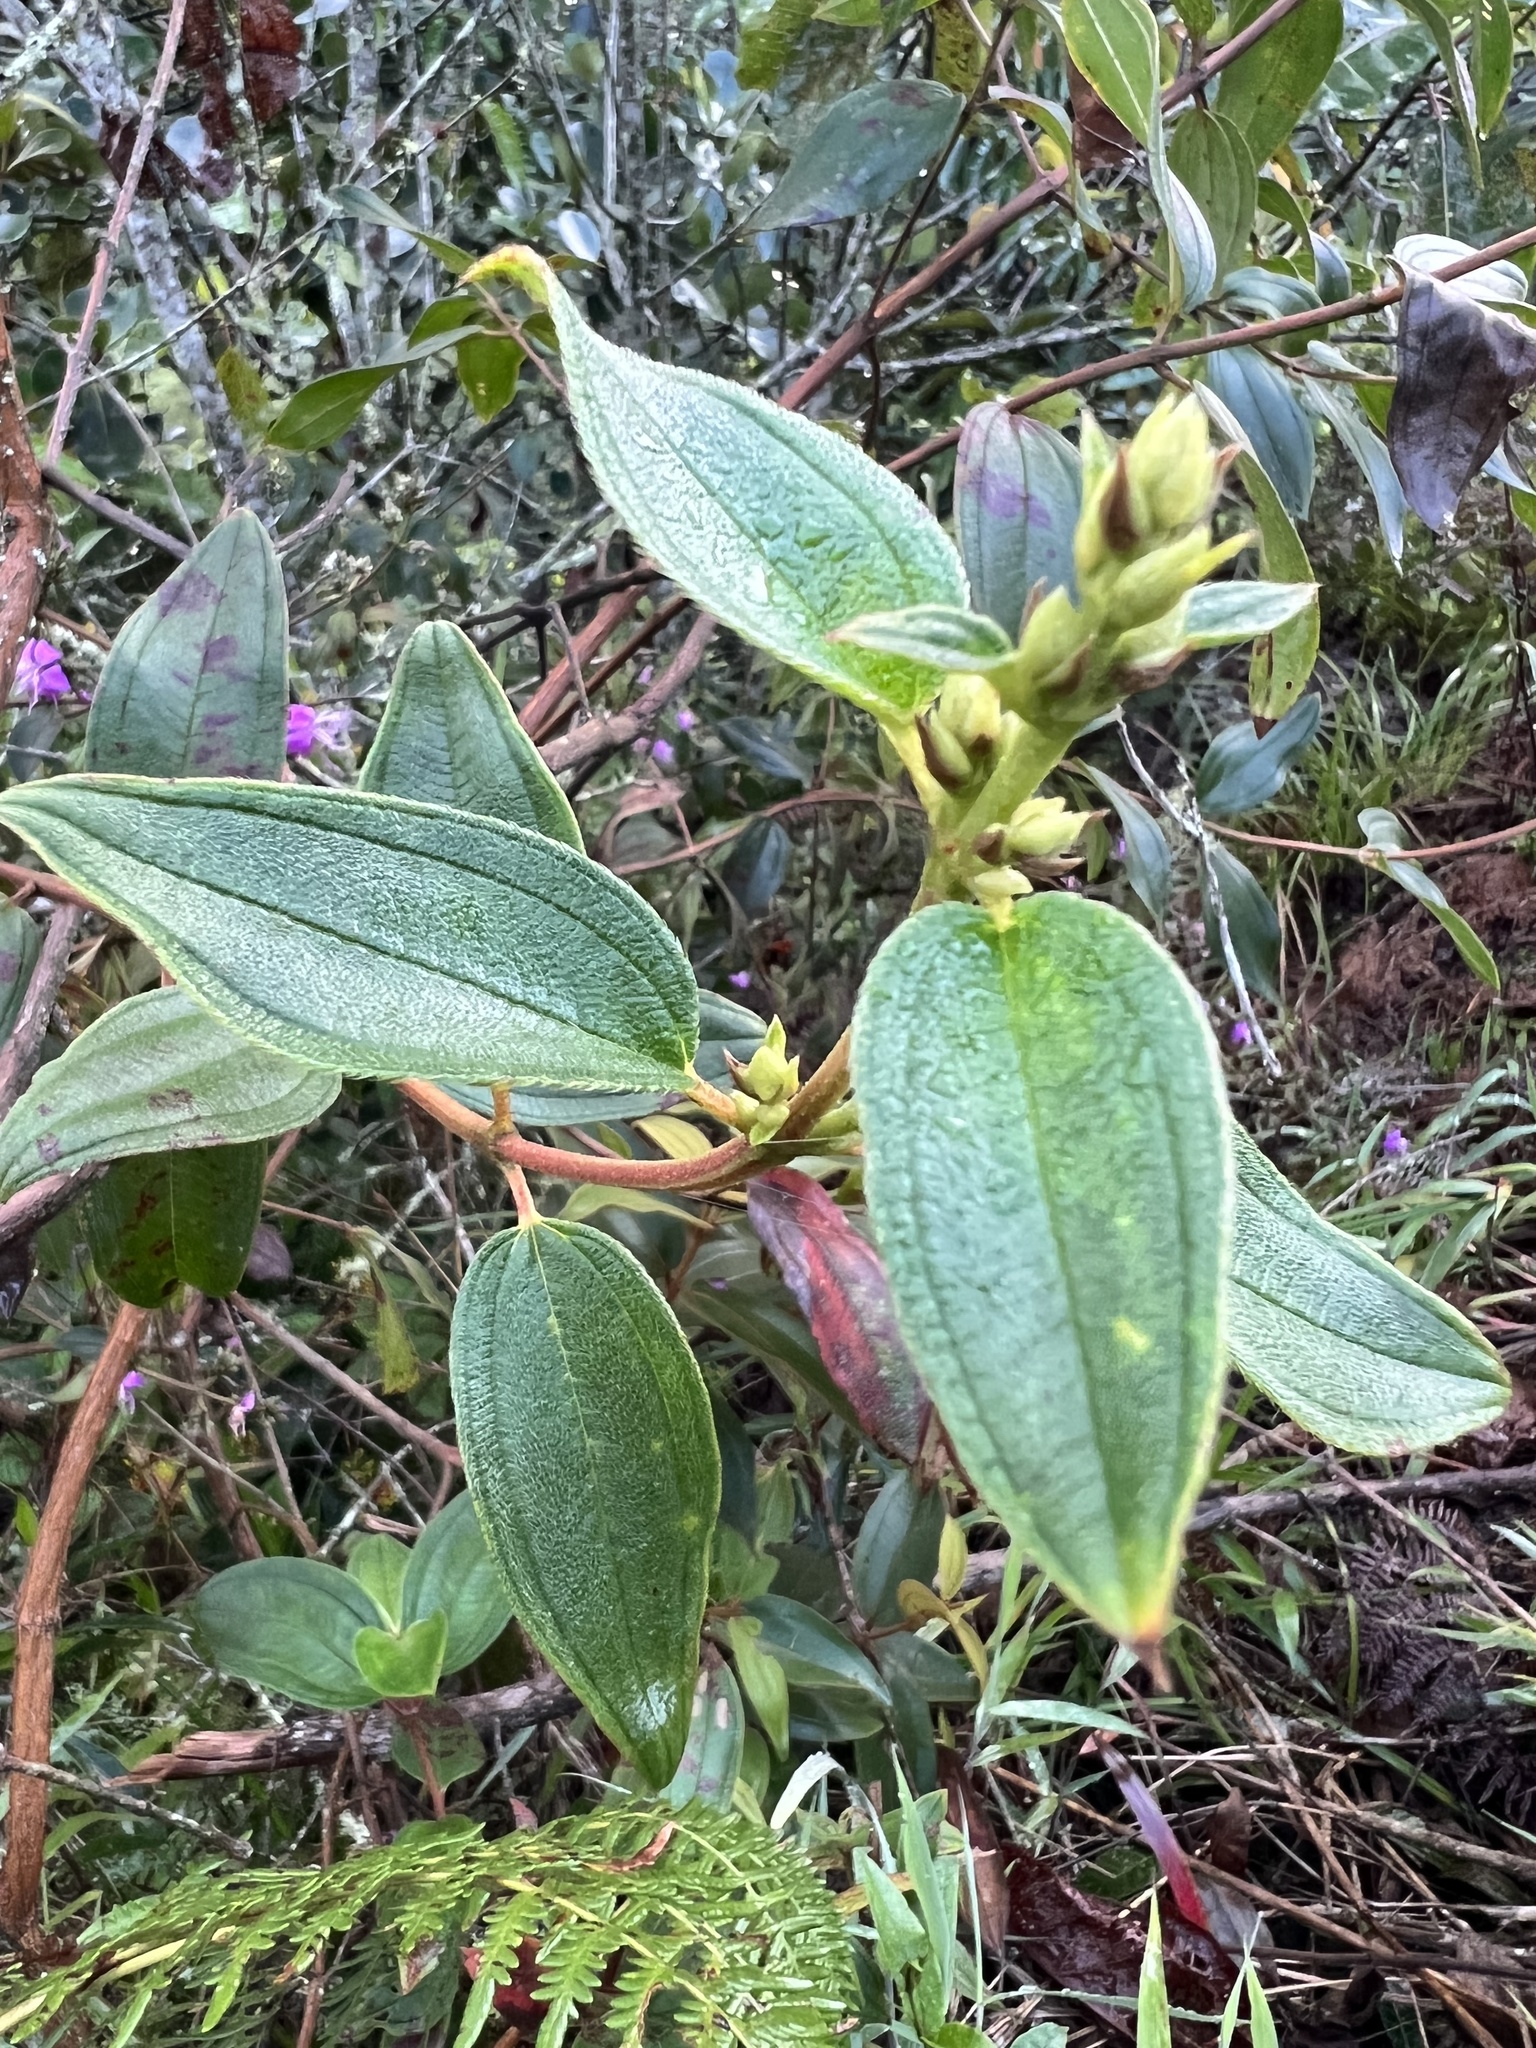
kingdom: Plantae
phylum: Tracheophyta
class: Magnoliopsida
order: Myrtales
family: Melastomataceae
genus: Pleroma
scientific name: Pleroma bipenicillatum
